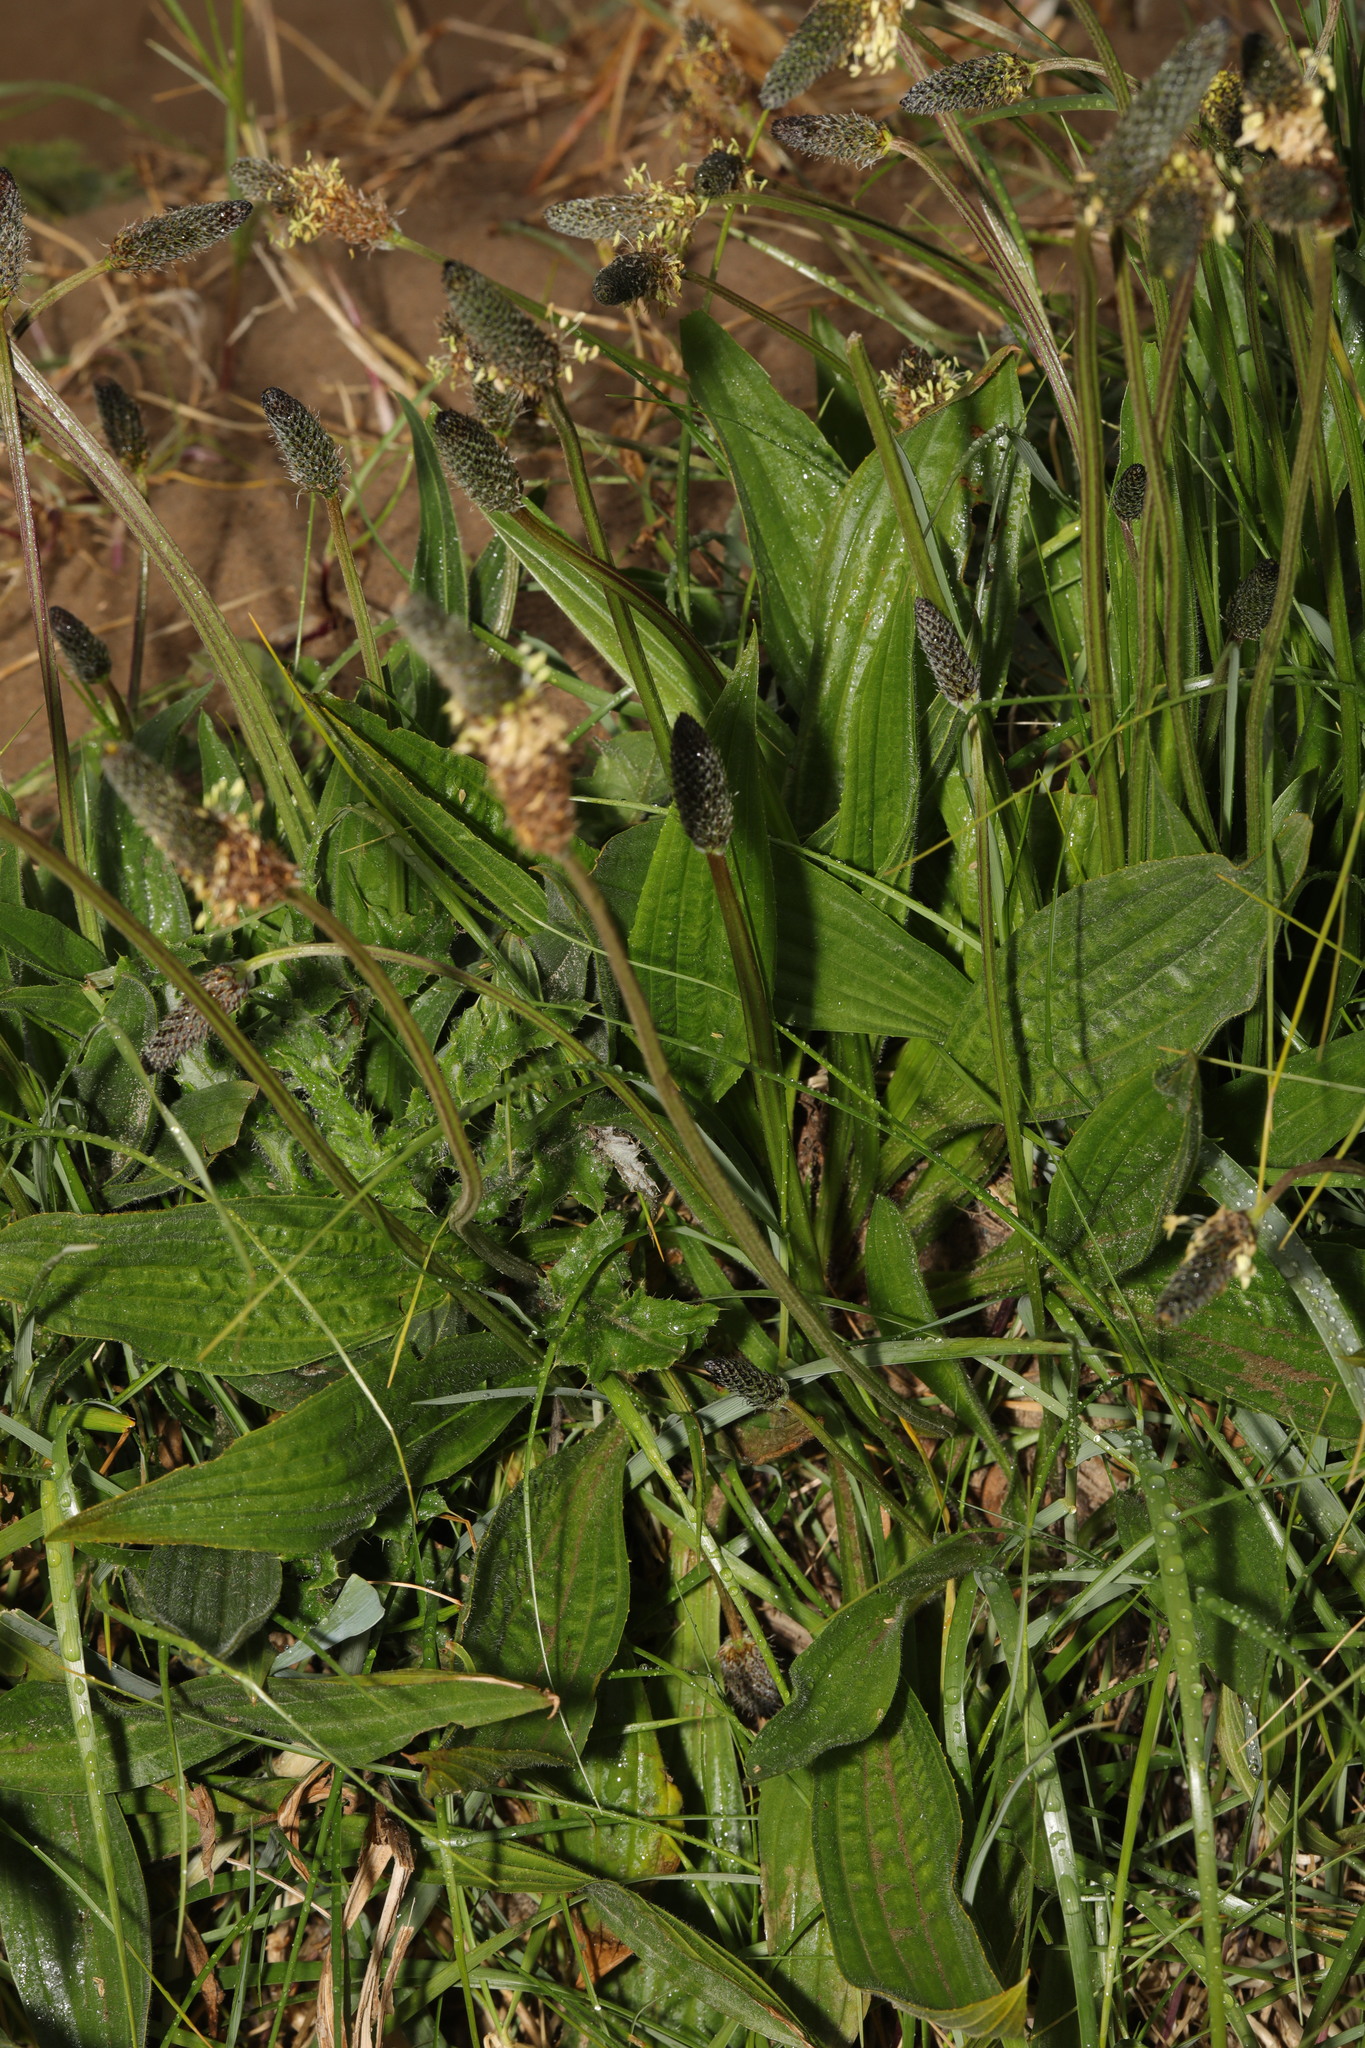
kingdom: Plantae
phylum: Tracheophyta
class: Magnoliopsida
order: Lamiales
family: Plantaginaceae
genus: Plantago
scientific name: Plantago lanceolata
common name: Ribwort plantain
